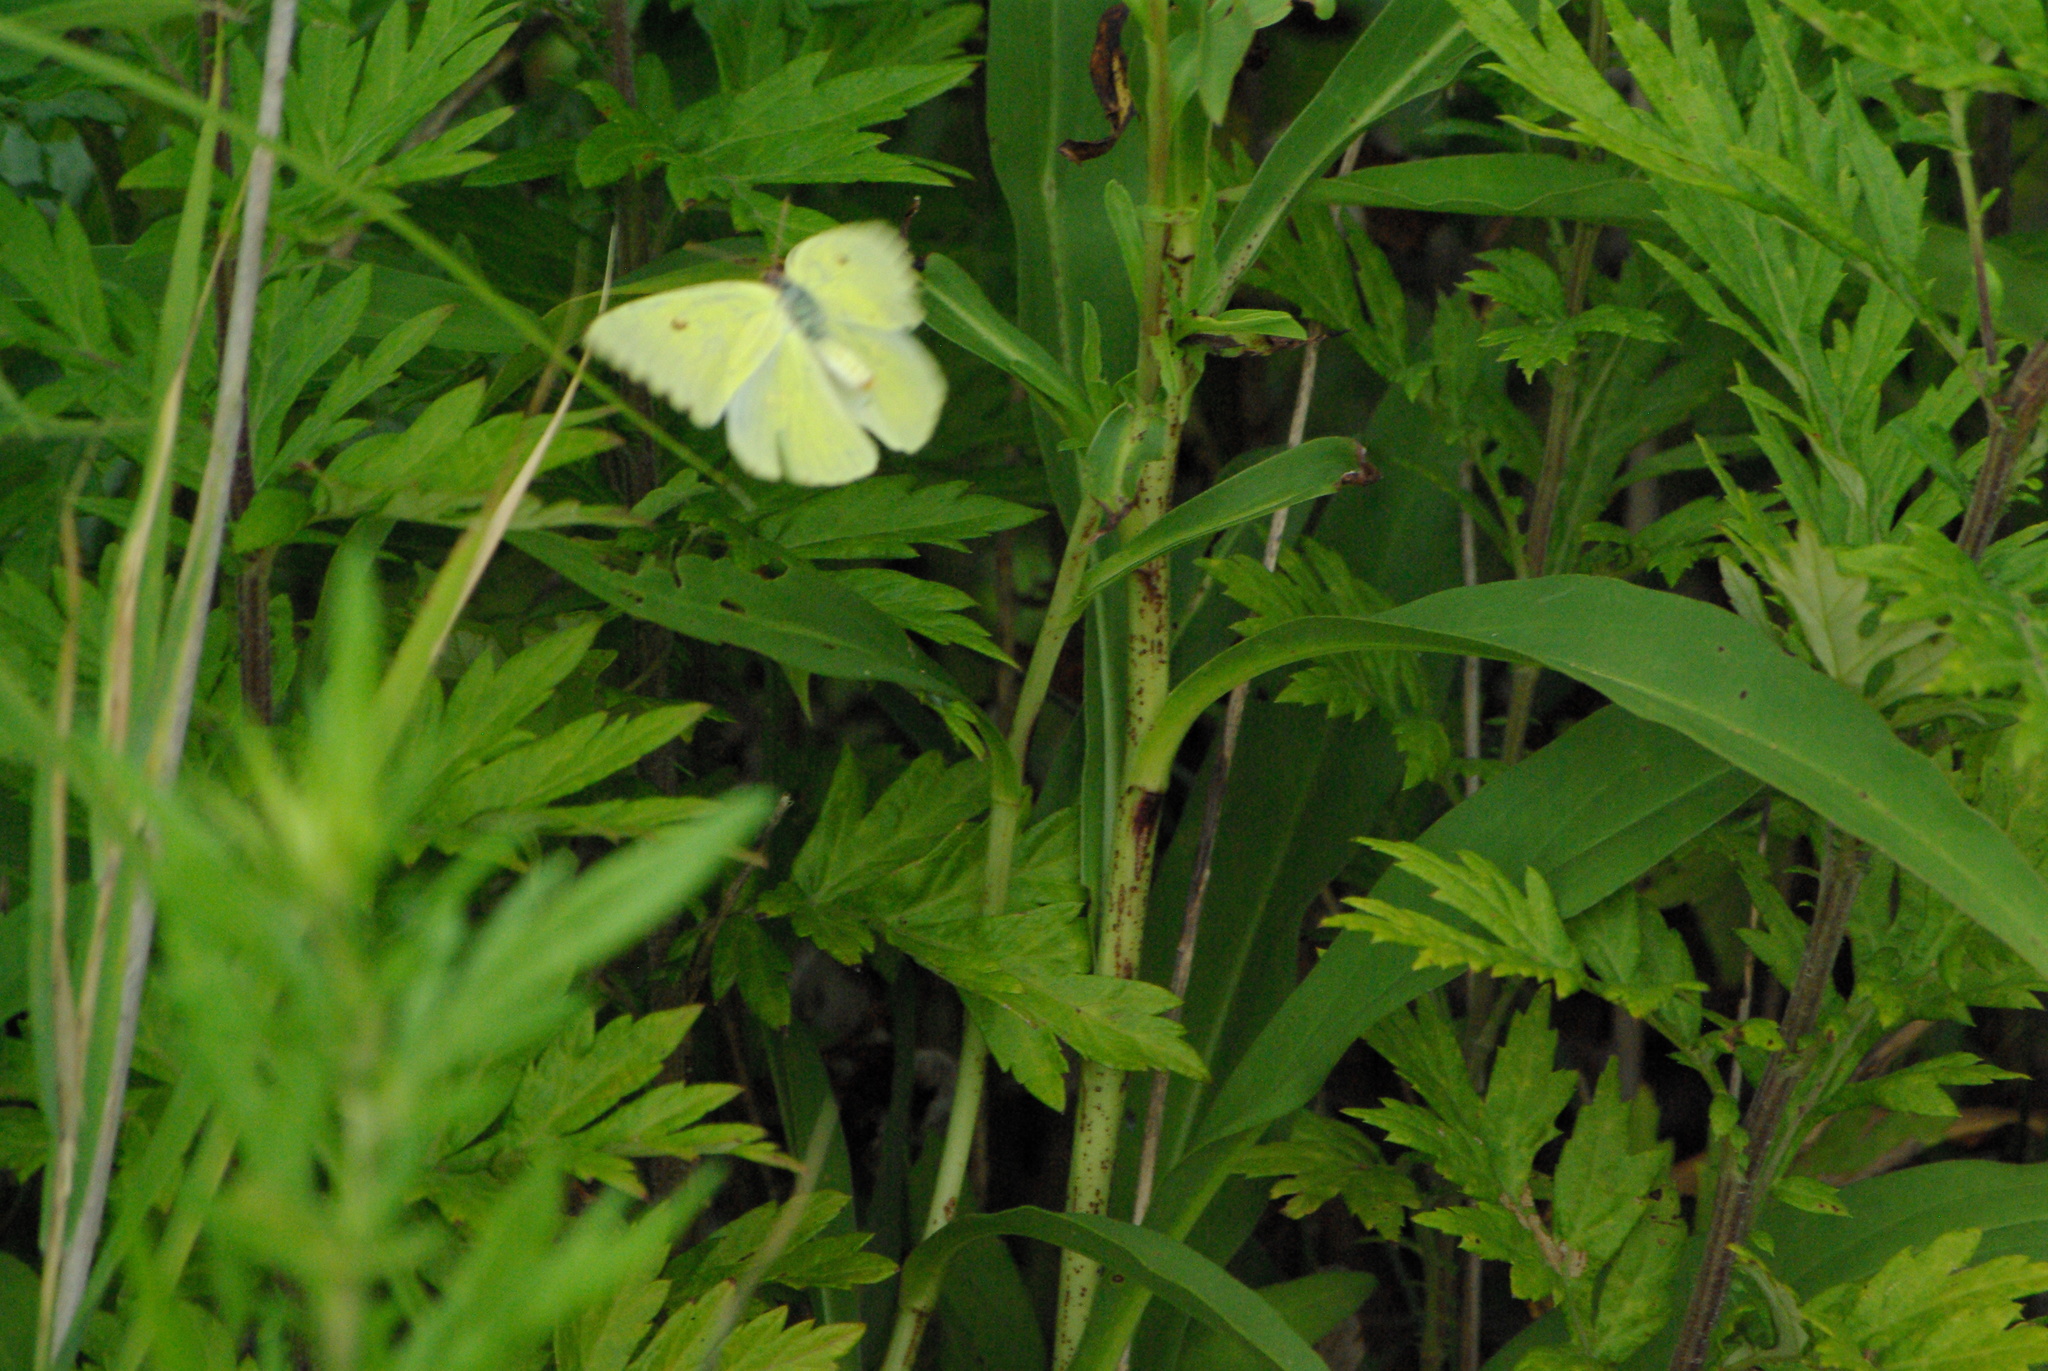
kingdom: Animalia
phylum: Arthropoda
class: Insecta
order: Lepidoptera
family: Pieridae
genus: Phoebis
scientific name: Phoebis sennae
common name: Cloudless sulphur
